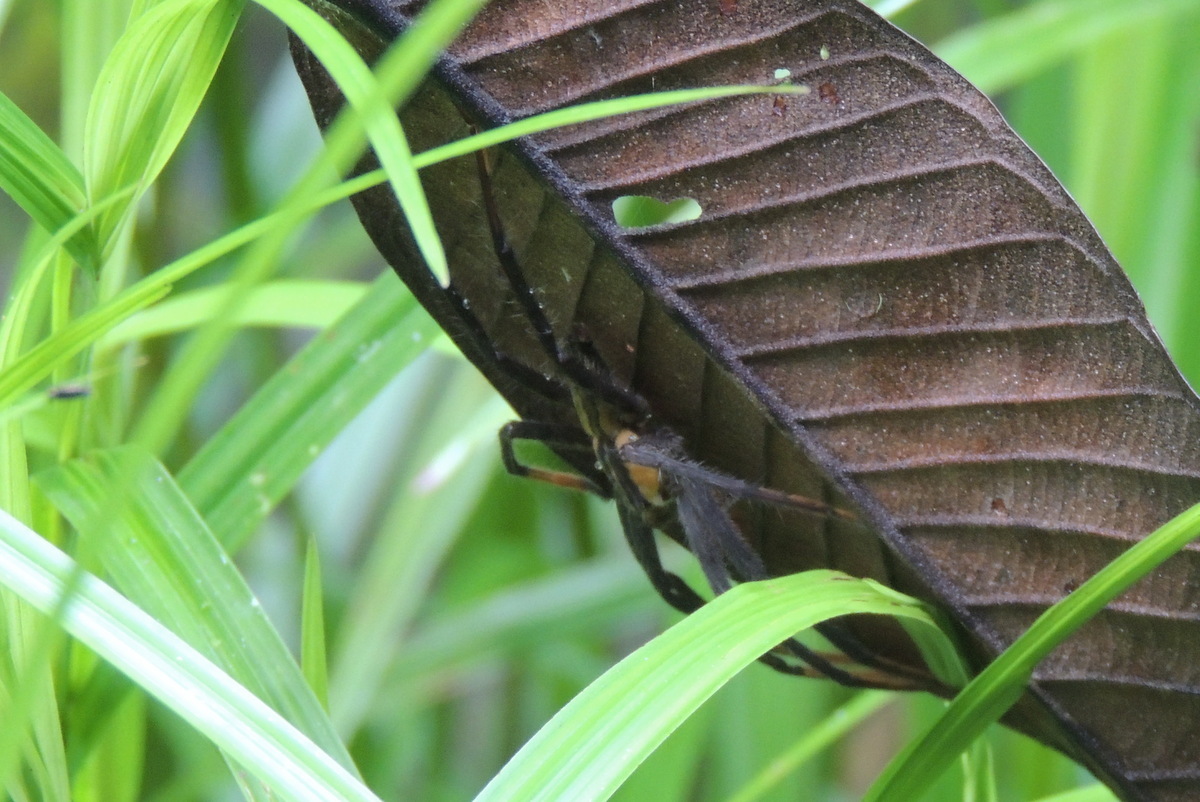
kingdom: Animalia
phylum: Arthropoda
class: Arachnida
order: Araneae
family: Trechaleidae
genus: Cupiennius
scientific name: Cupiennius getazi
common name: Wandering spiders
